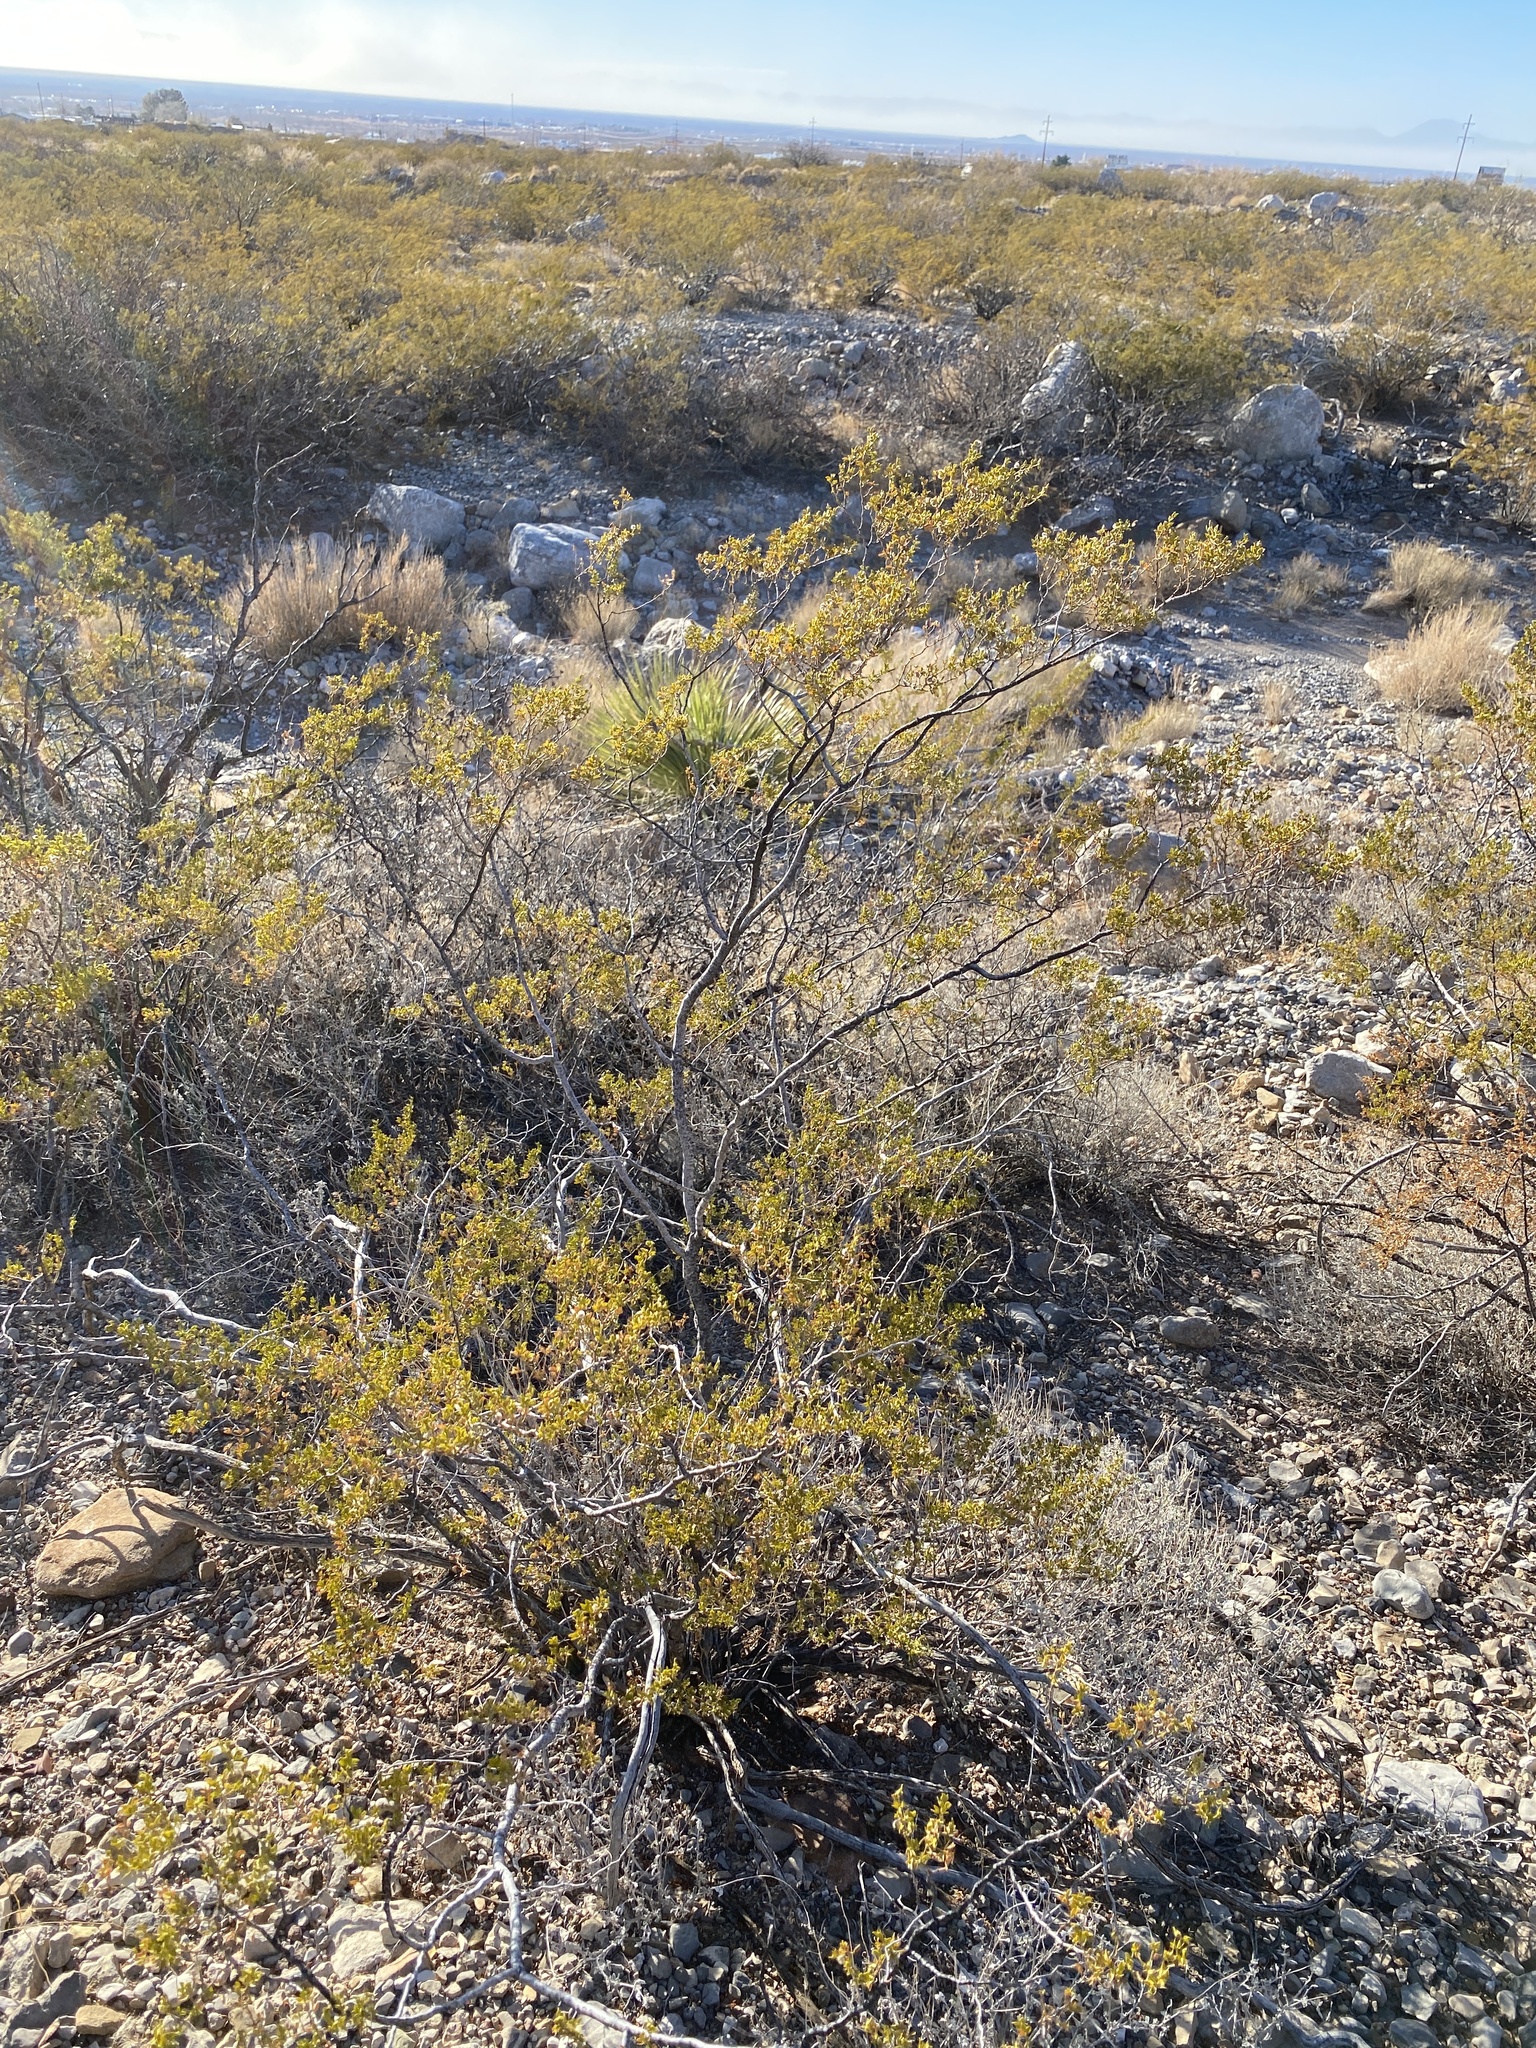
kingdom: Plantae
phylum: Tracheophyta
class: Magnoliopsida
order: Zygophyllales
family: Zygophyllaceae
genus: Larrea
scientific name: Larrea tridentata
